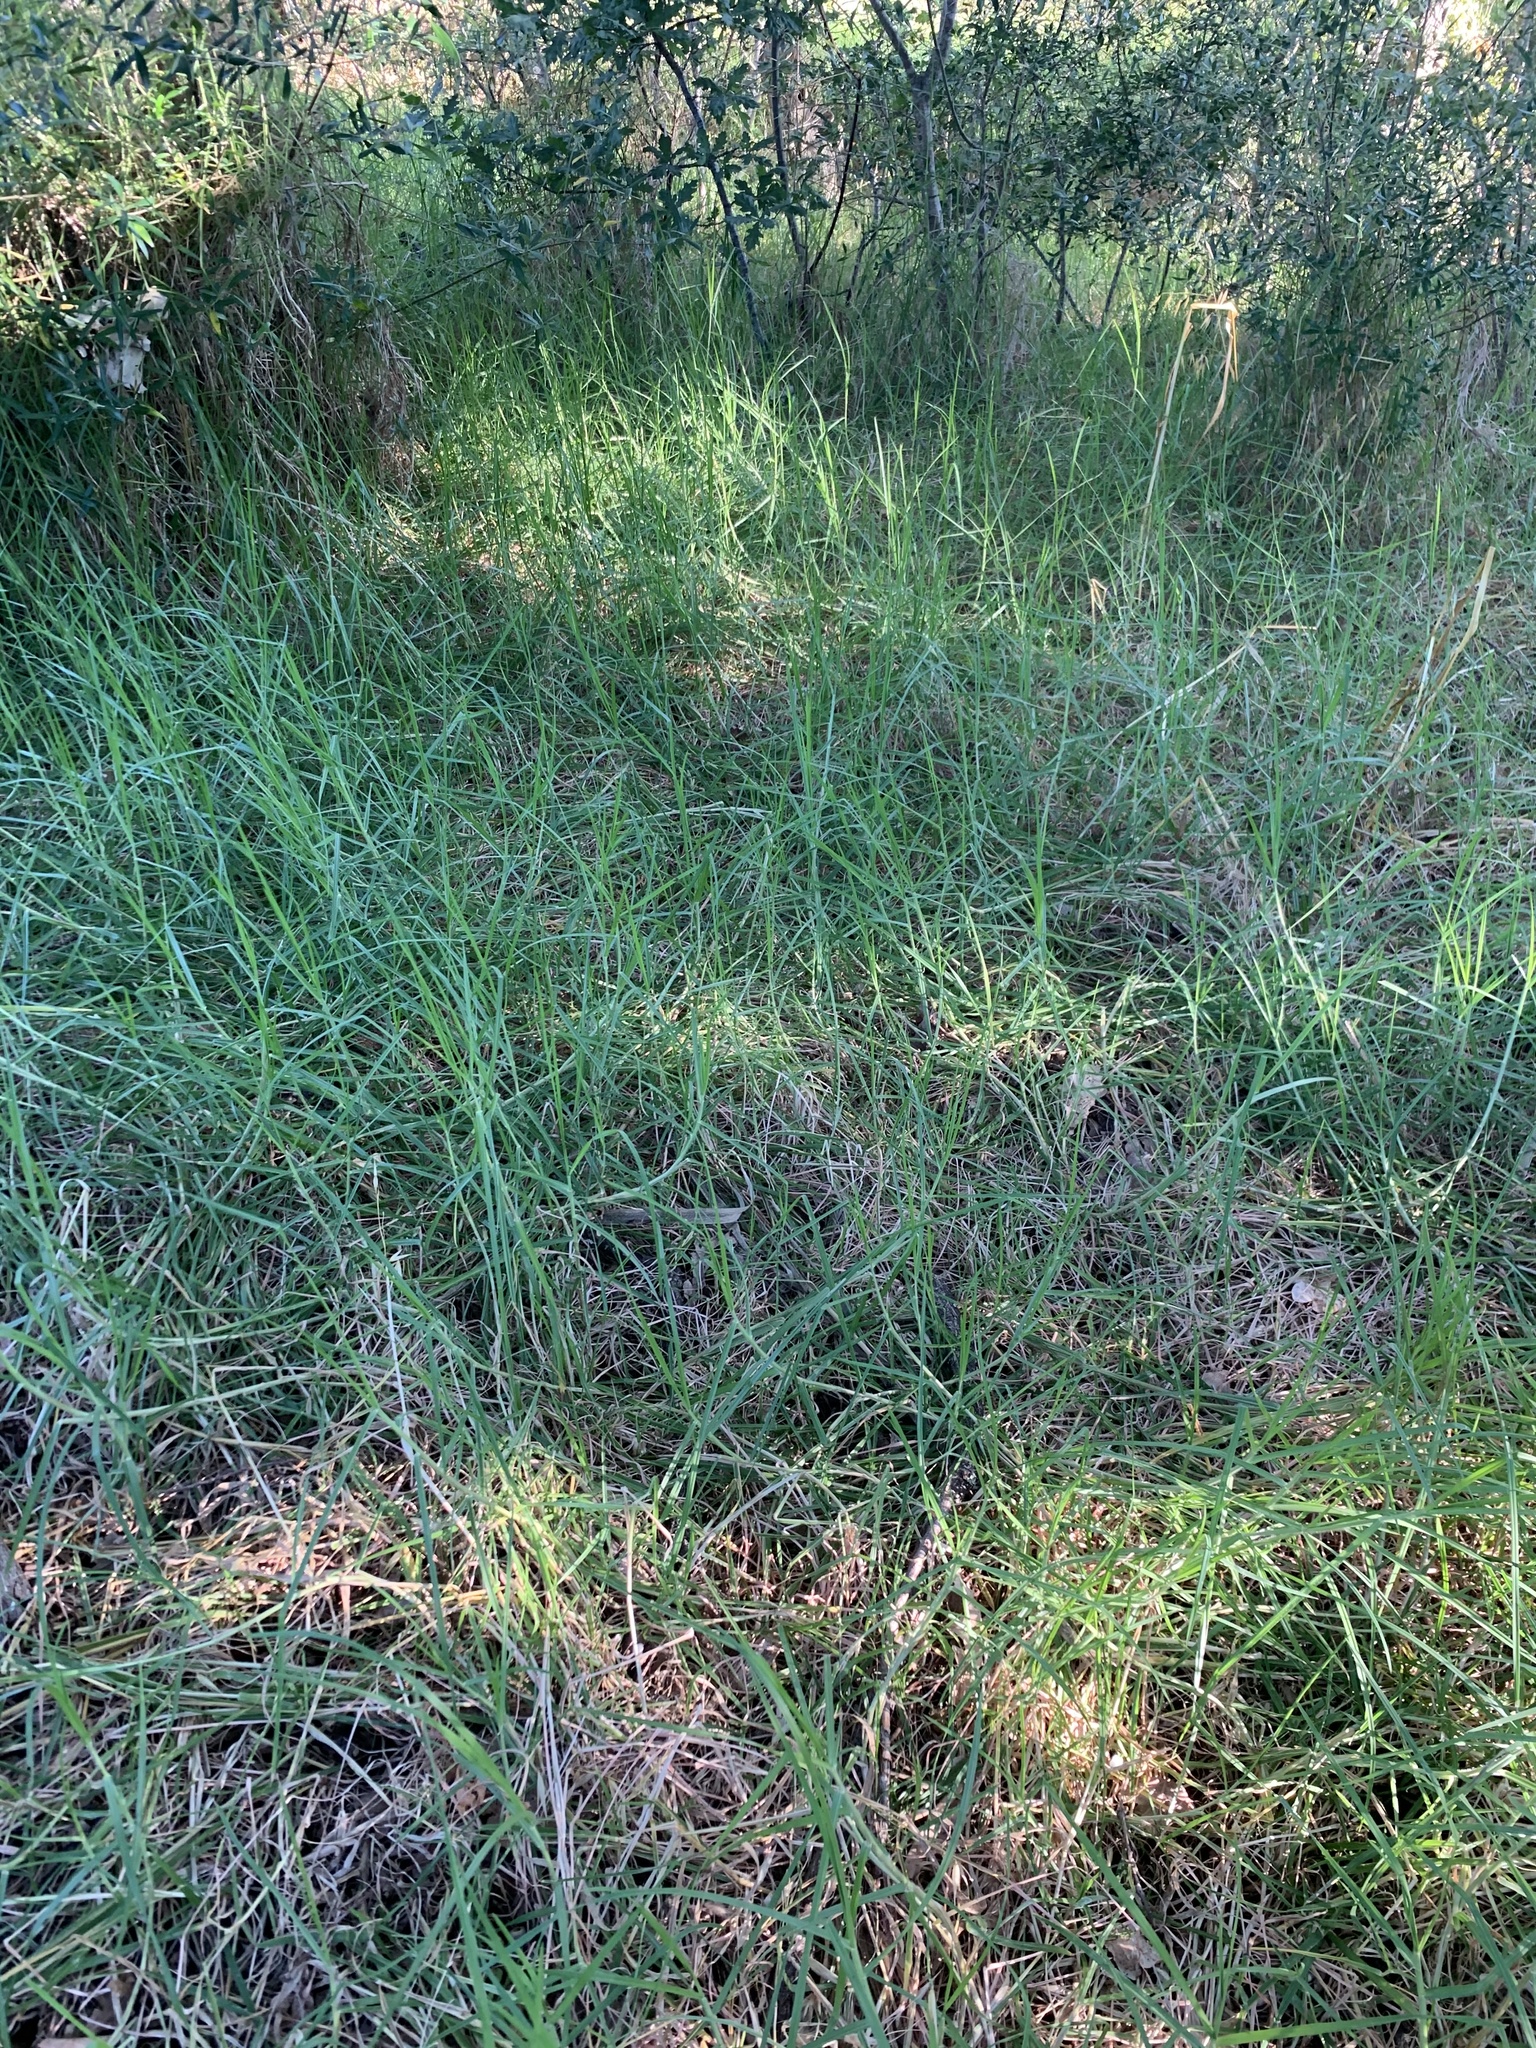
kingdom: Plantae
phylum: Tracheophyta
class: Liliopsida
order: Poales
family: Poaceae
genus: Cenchrus
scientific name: Cenchrus clandestinus
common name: Kikuyugrass
